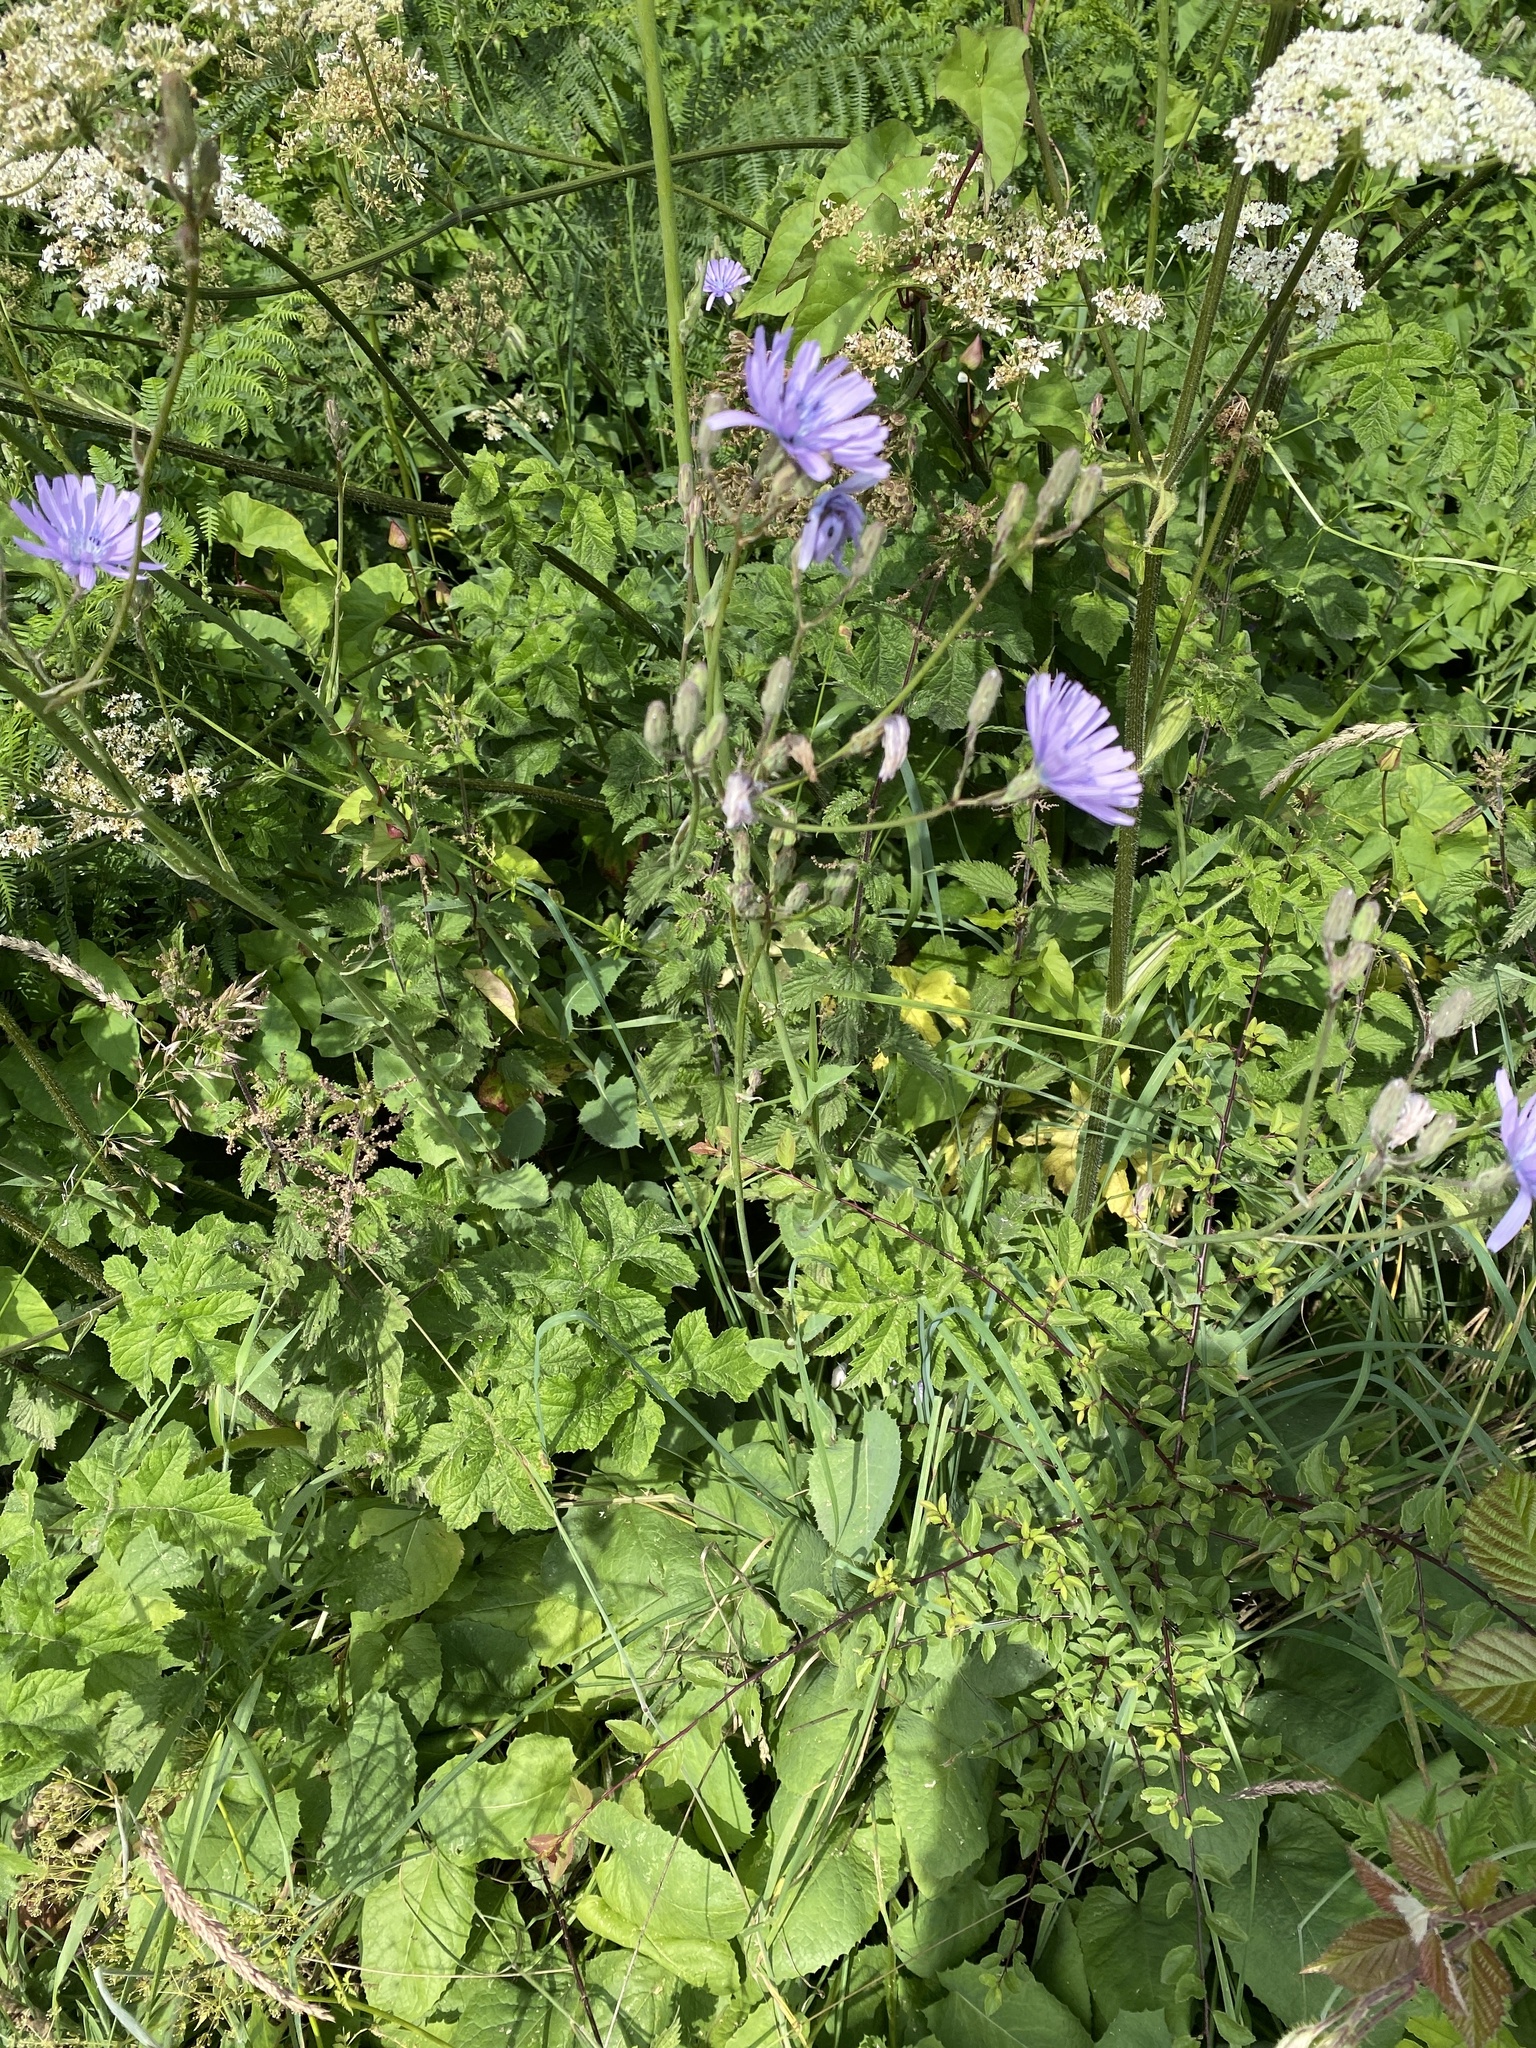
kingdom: Plantae
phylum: Tracheophyta
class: Magnoliopsida
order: Asterales
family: Asteraceae
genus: Lactuca
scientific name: Lactuca macrophylla
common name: Common blue-sow-thistle
